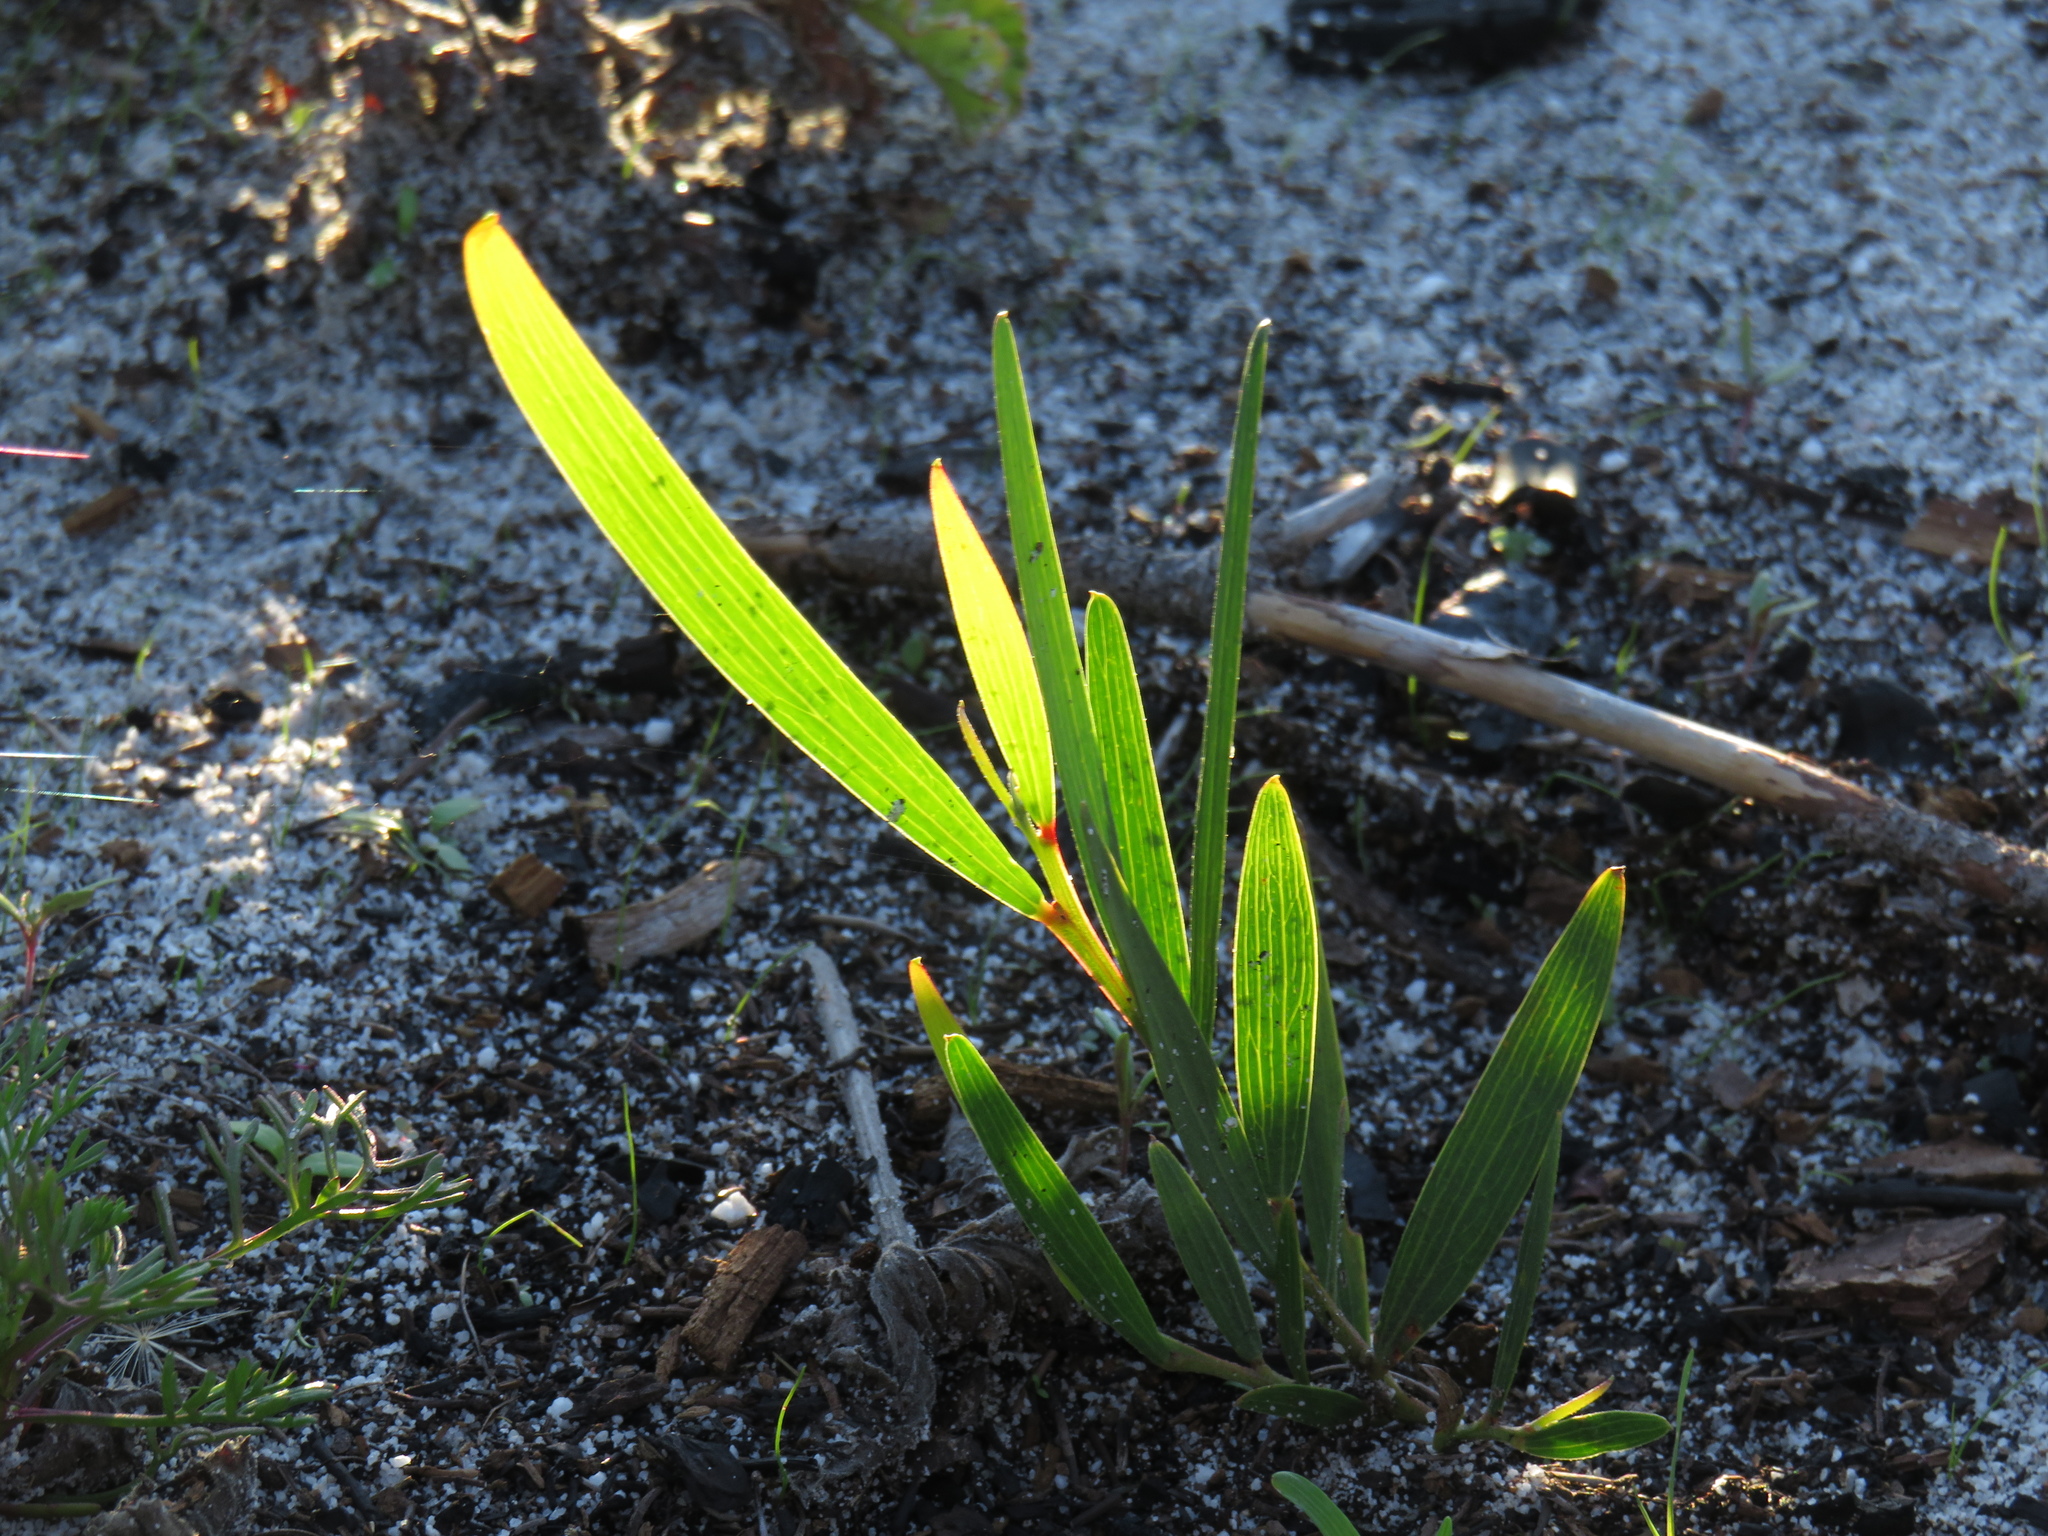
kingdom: Plantae
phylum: Tracheophyta
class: Magnoliopsida
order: Fabales
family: Fabaceae
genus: Acacia
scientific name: Acacia longifolia
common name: Sydney golden wattle
